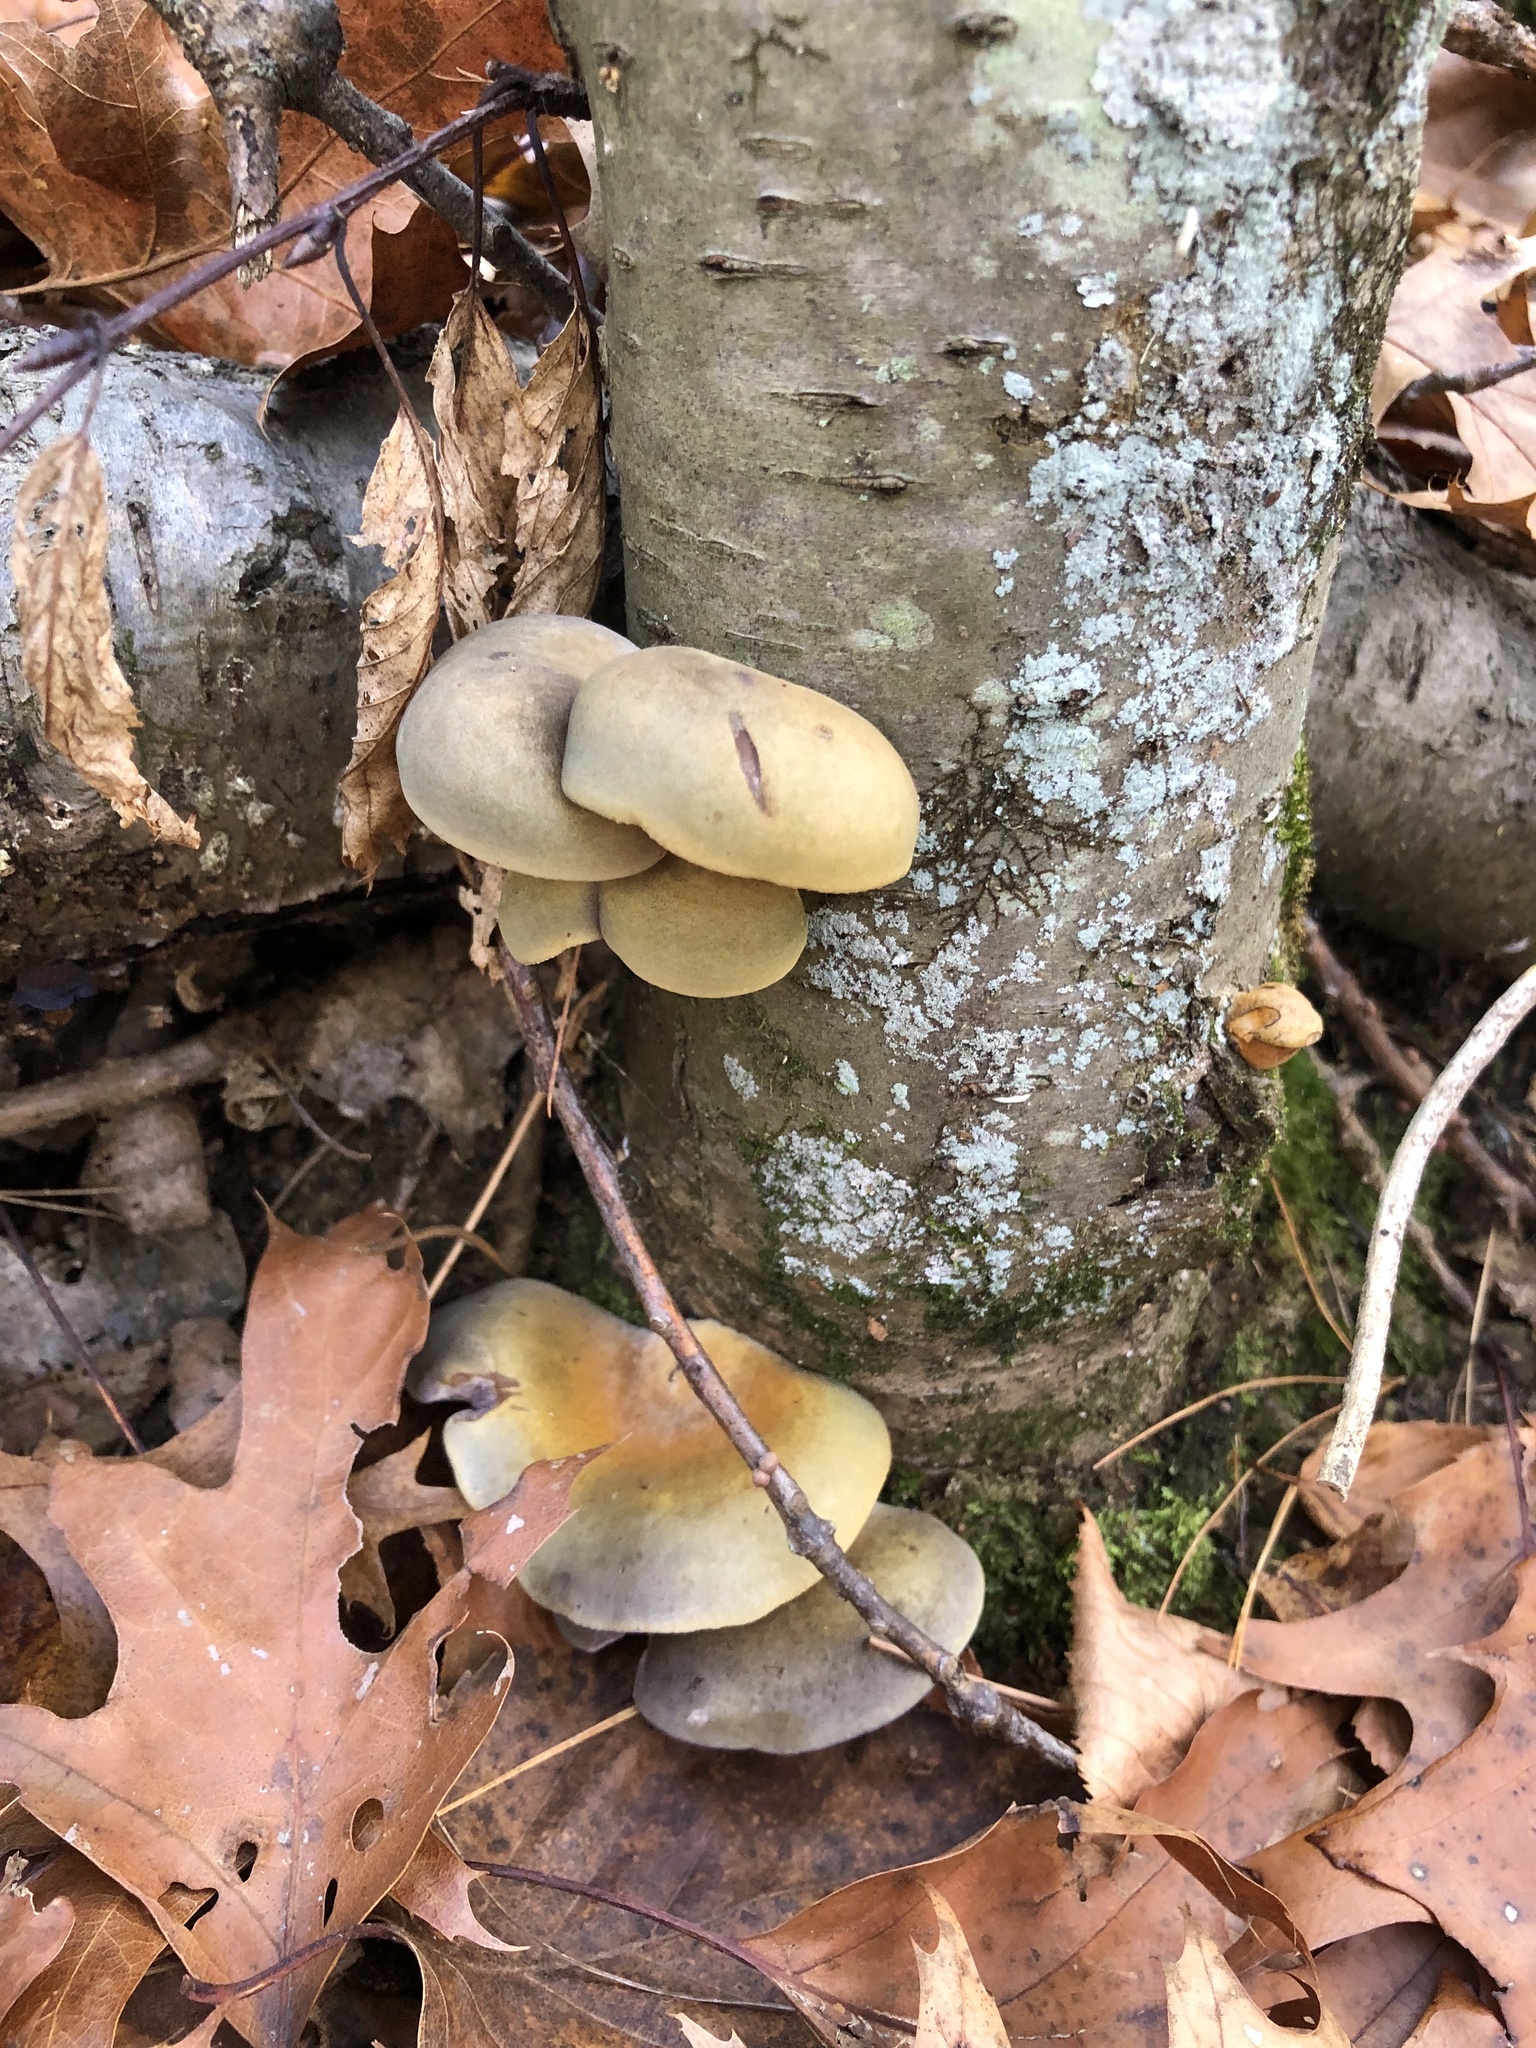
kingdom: Fungi
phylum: Basidiomycota
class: Agaricomycetes
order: Agaricales
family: Sarcomyxaceae
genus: Sarcomyxa
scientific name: Sarcomyxa serotina
